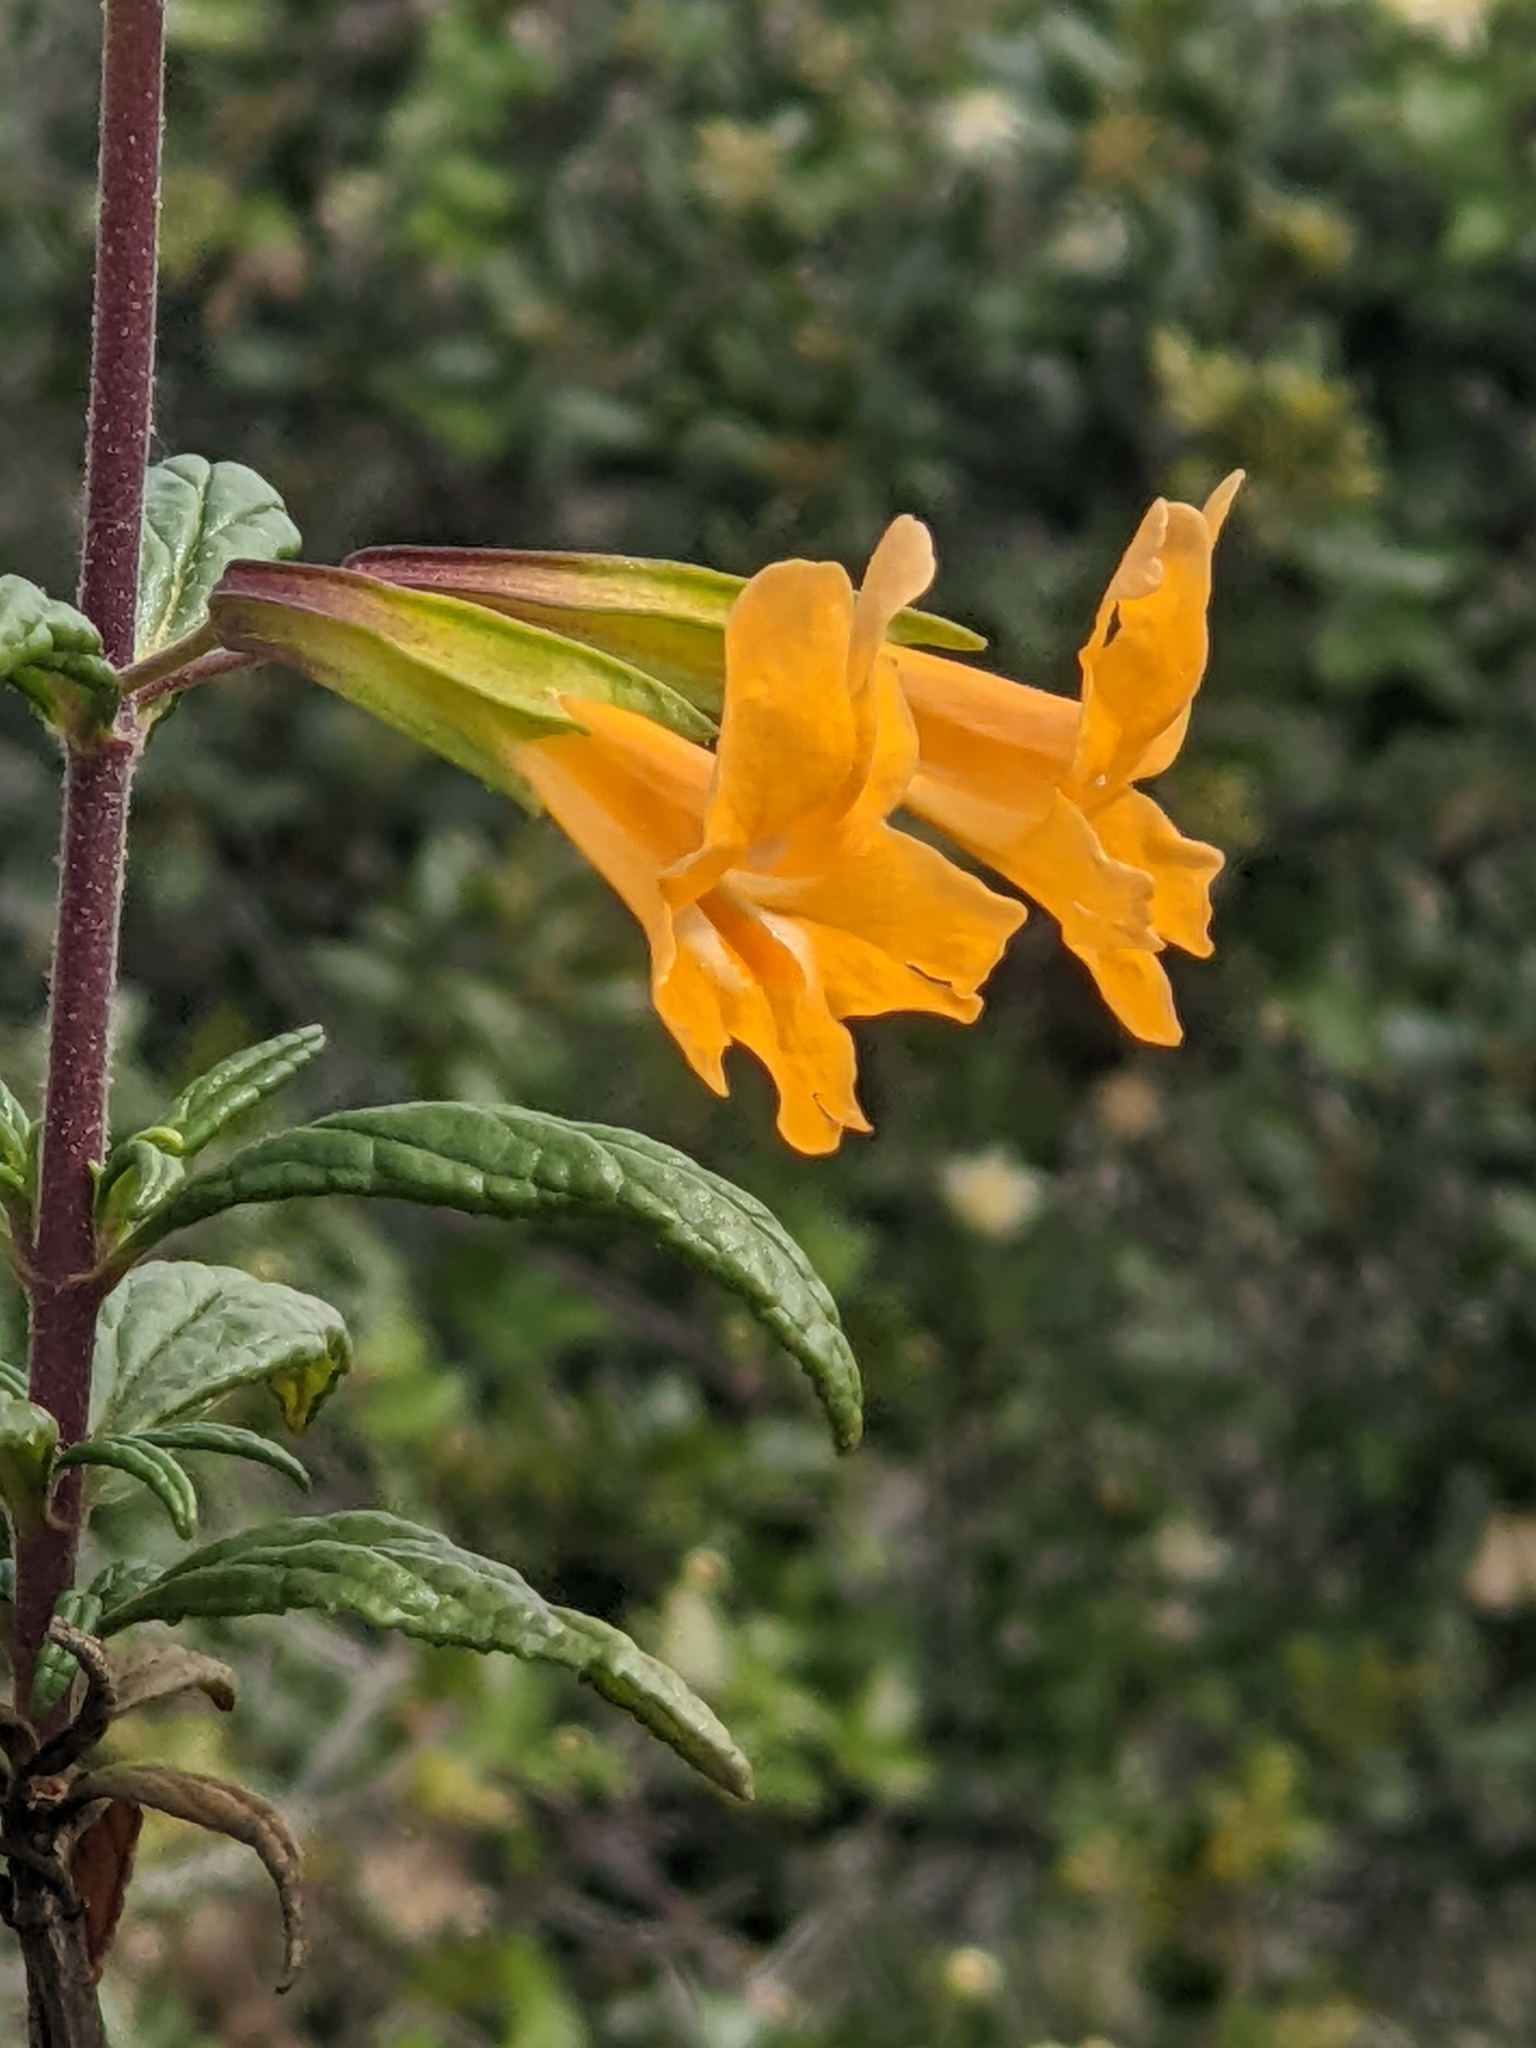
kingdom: Plantae
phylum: Tracheophyta
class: Magnoliopsida
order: Lamiales
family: Phrymaceae
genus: Diplacus
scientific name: Diplacus aurantiacus
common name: Bush monkey-flower
